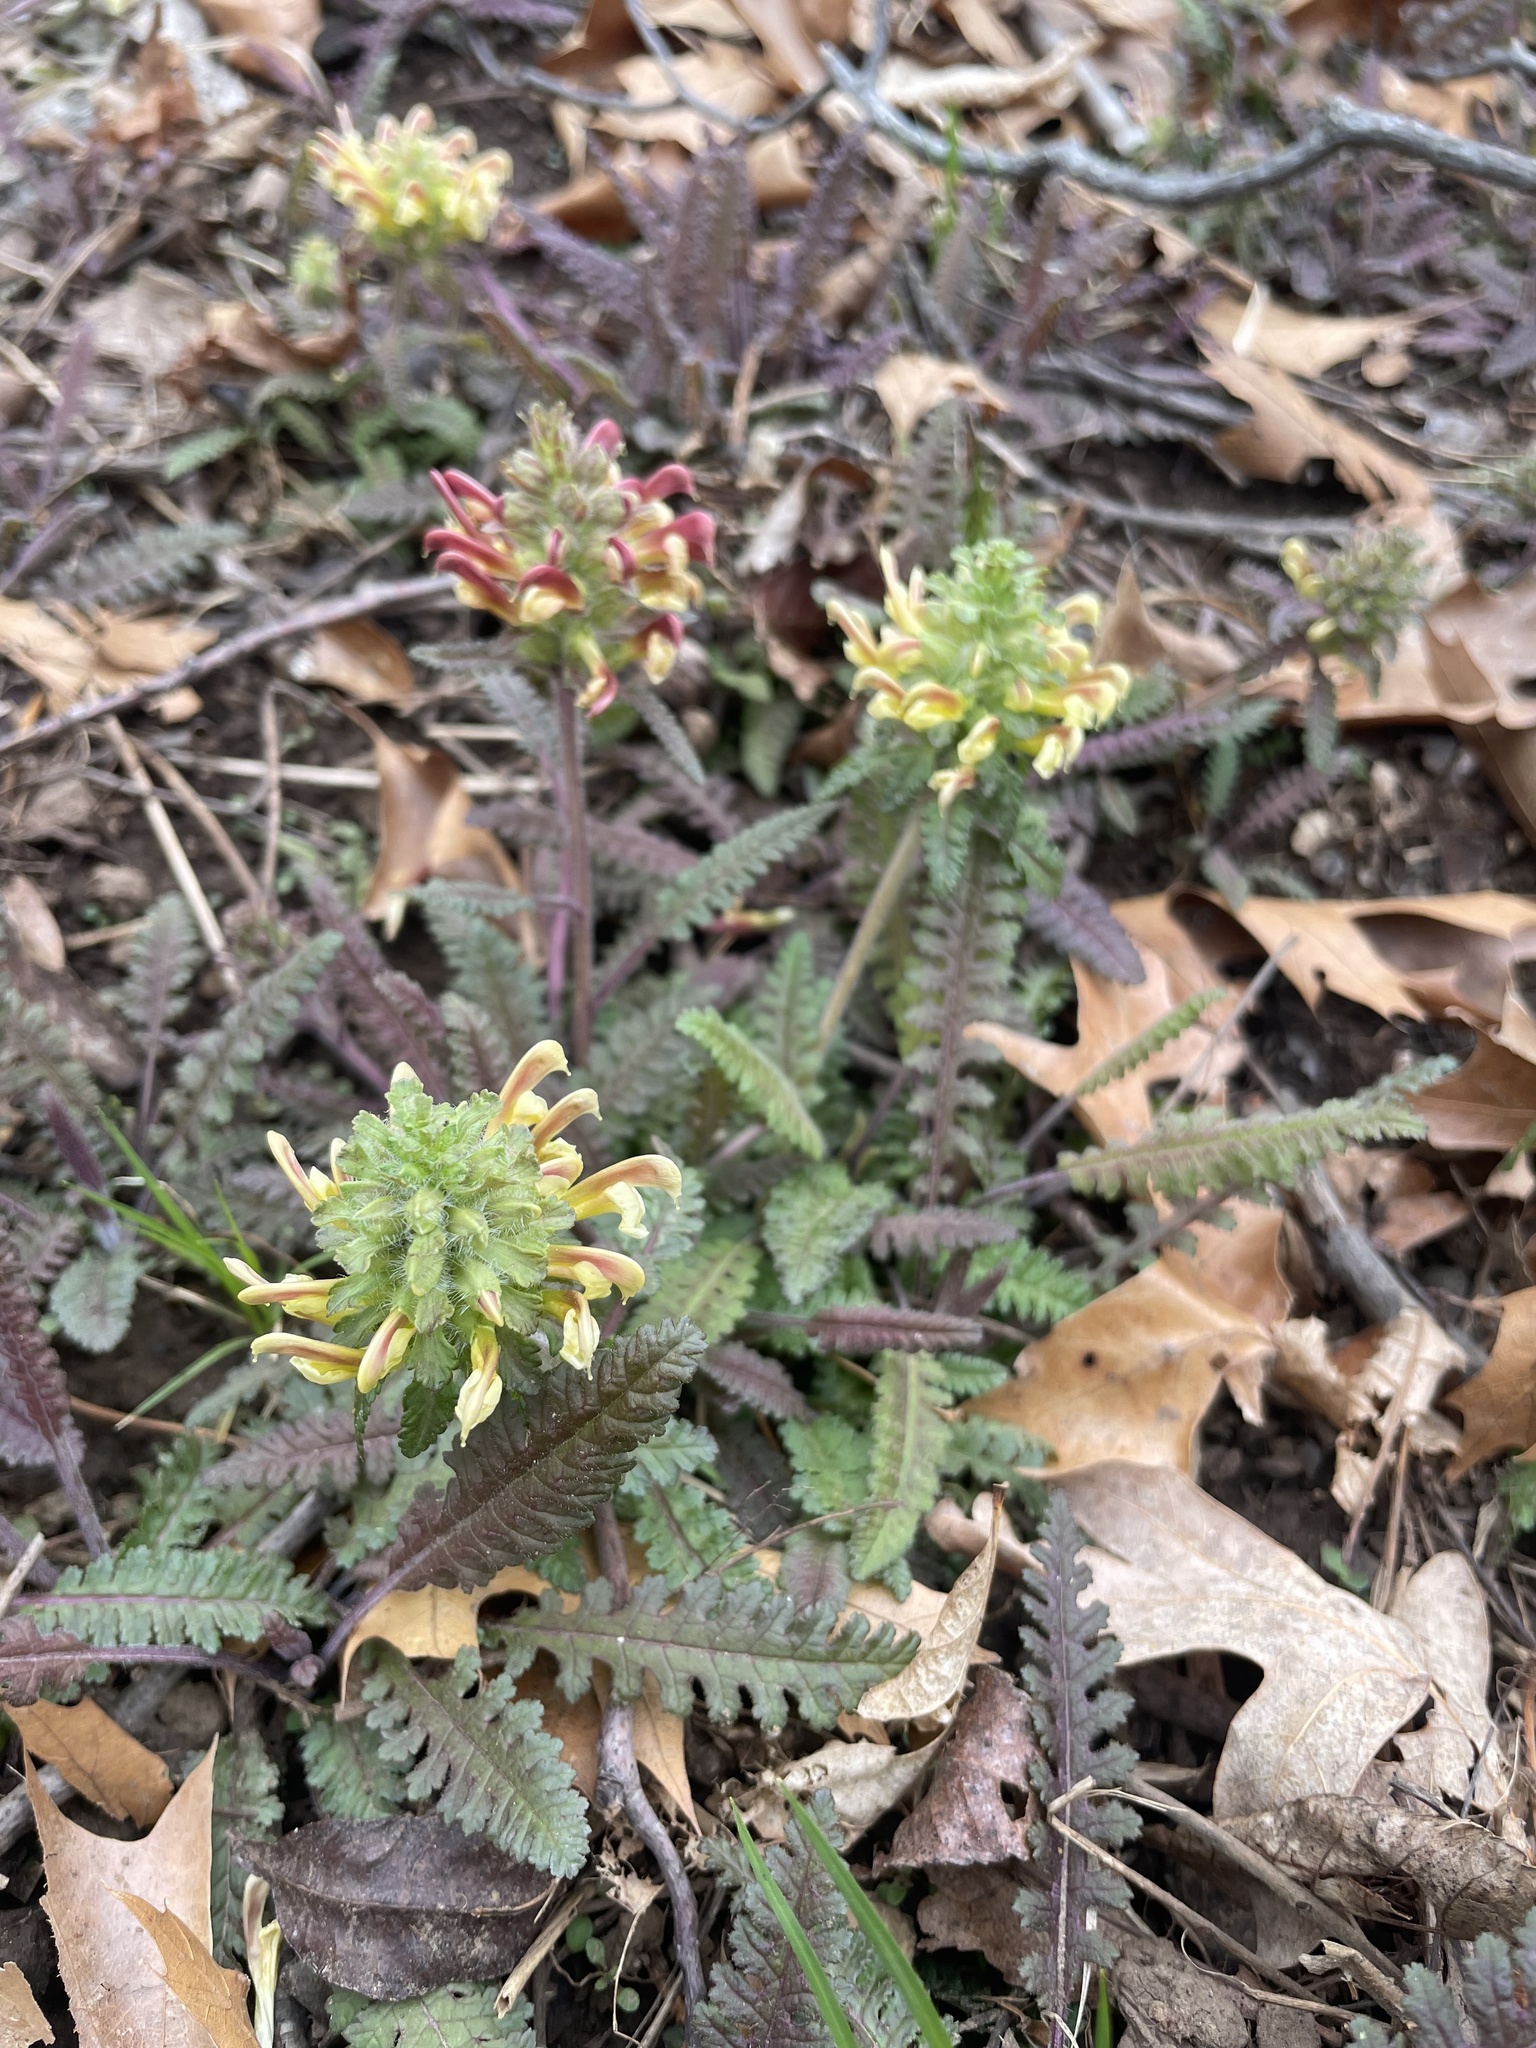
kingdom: Plantae
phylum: Tracheophyta
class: Magnoliopsida
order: Lamiales
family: Orobanchaceae
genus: Pedicularis
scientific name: Pedicularis canadensis
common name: Early lousewort
